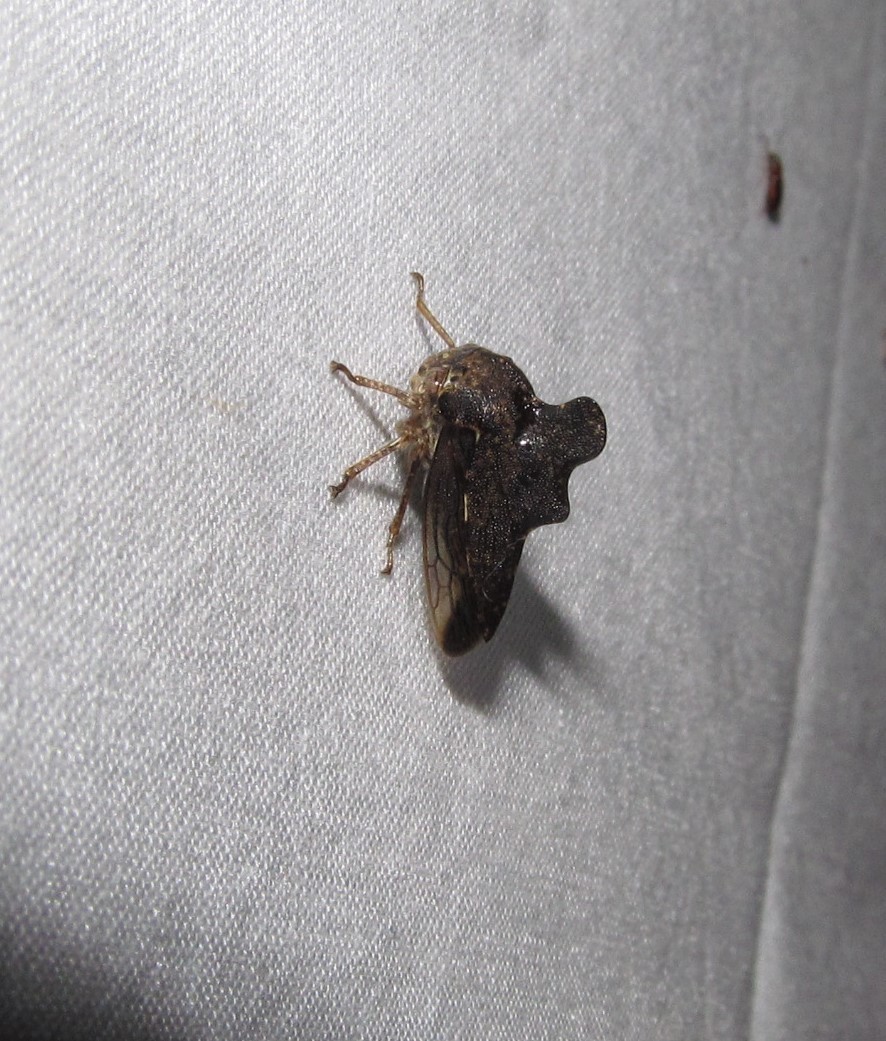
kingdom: Animalia
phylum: Arthropoda
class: Insecta
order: Hemiptera
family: Membracidae
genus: Heliria
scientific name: Heliria cristata
